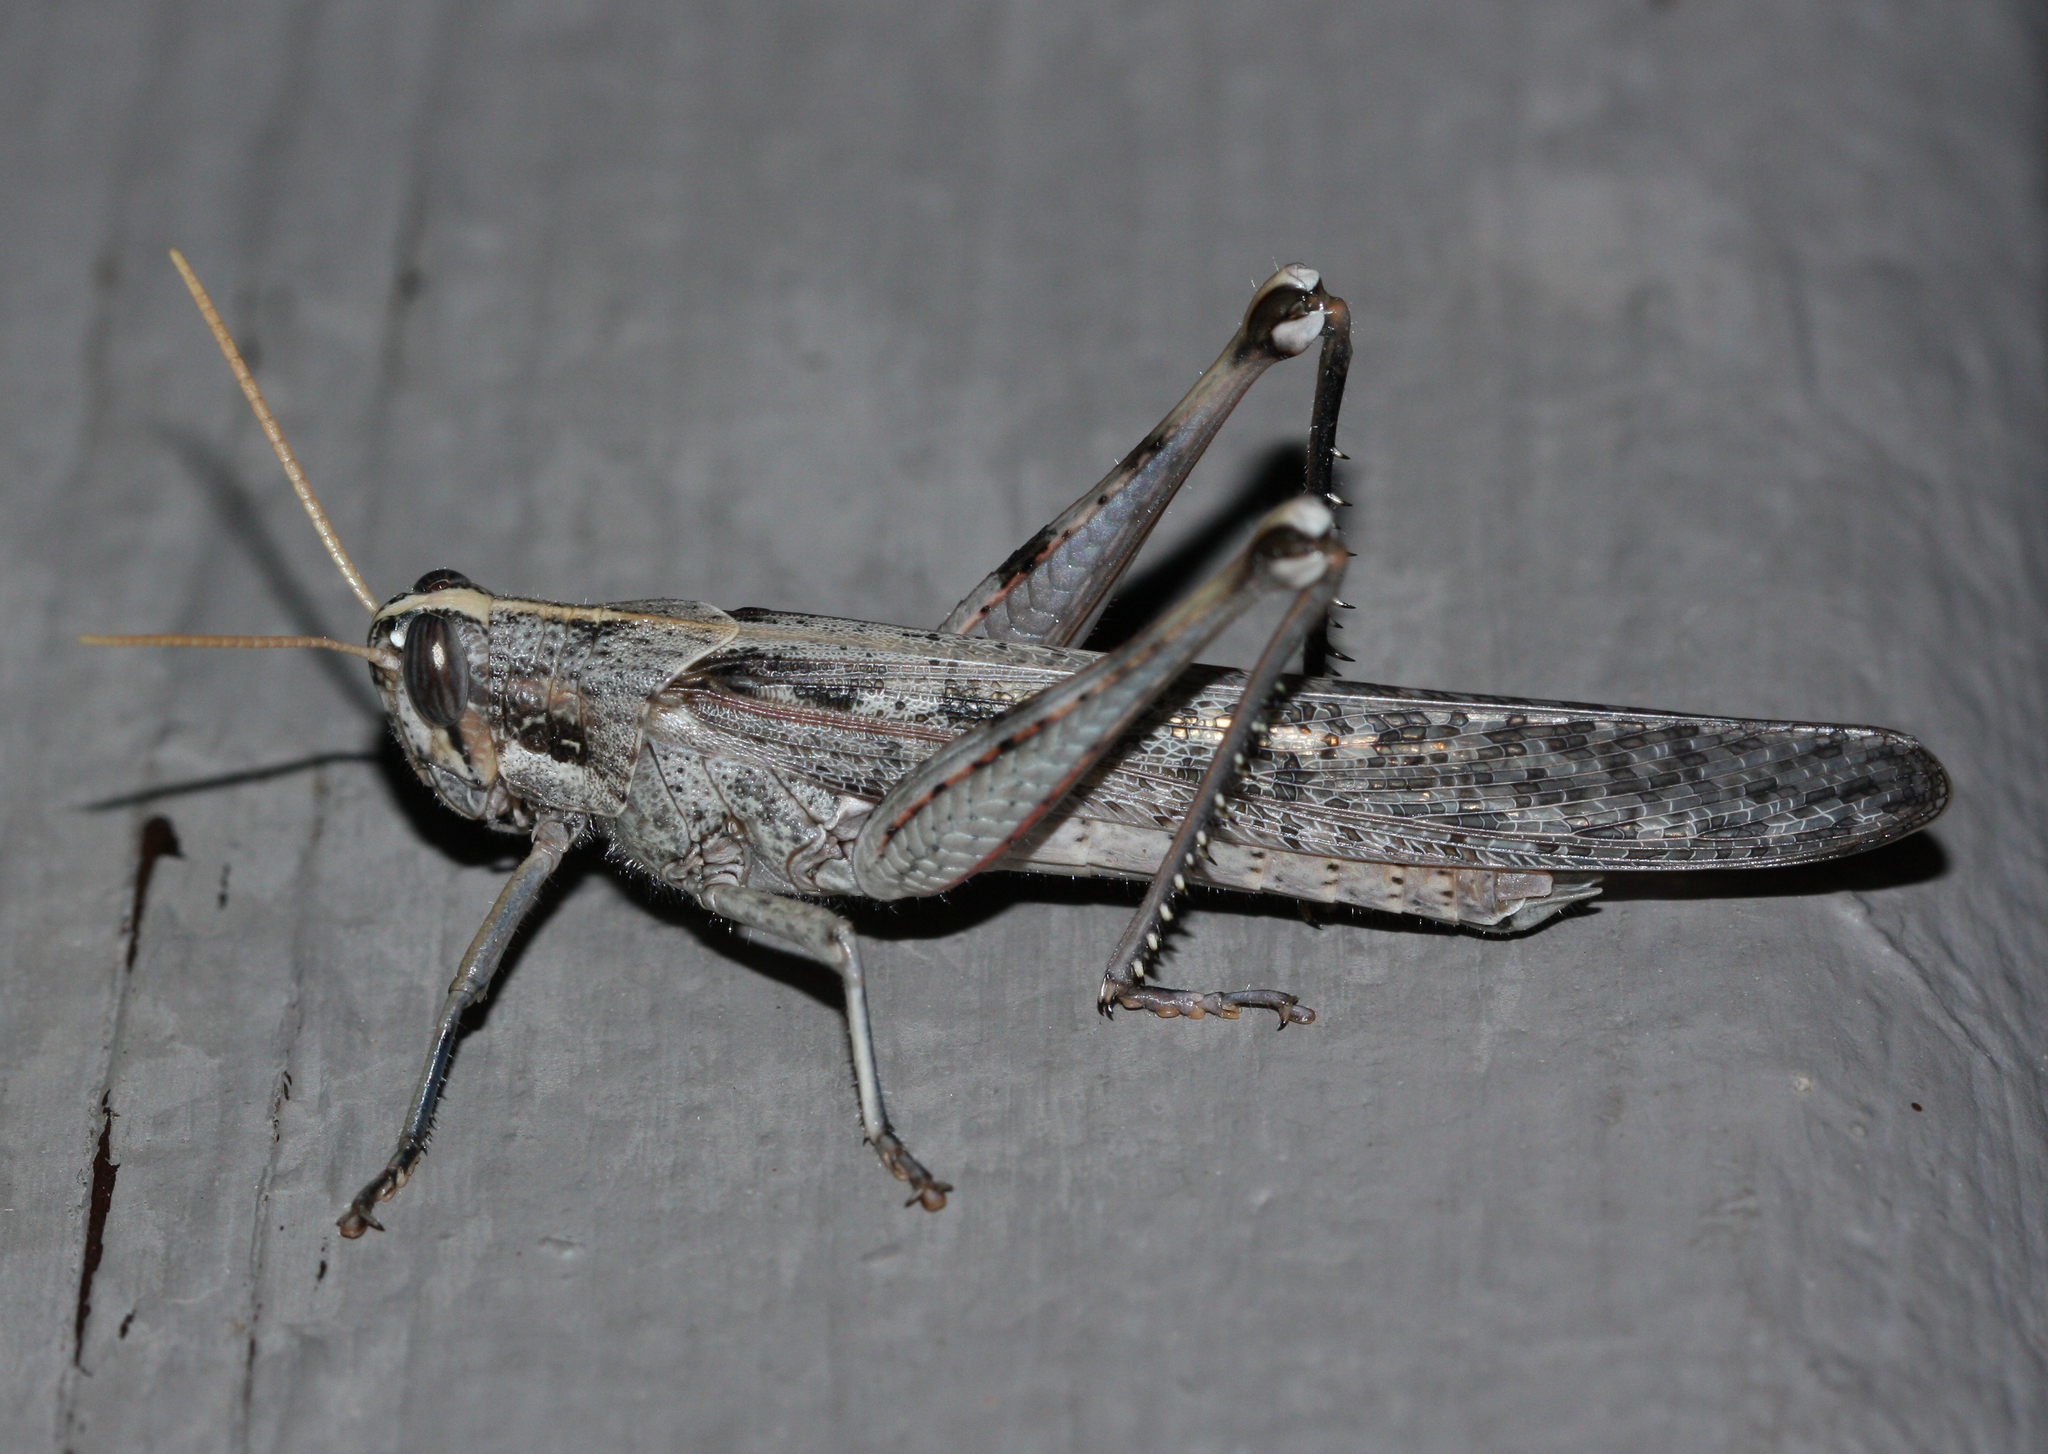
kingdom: Animalia
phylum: Arthropoda
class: Insecta
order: Orthoptera
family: Acrididae
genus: Schistocerca
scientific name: Schistocerca nitens
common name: Vagrant grasshopper
